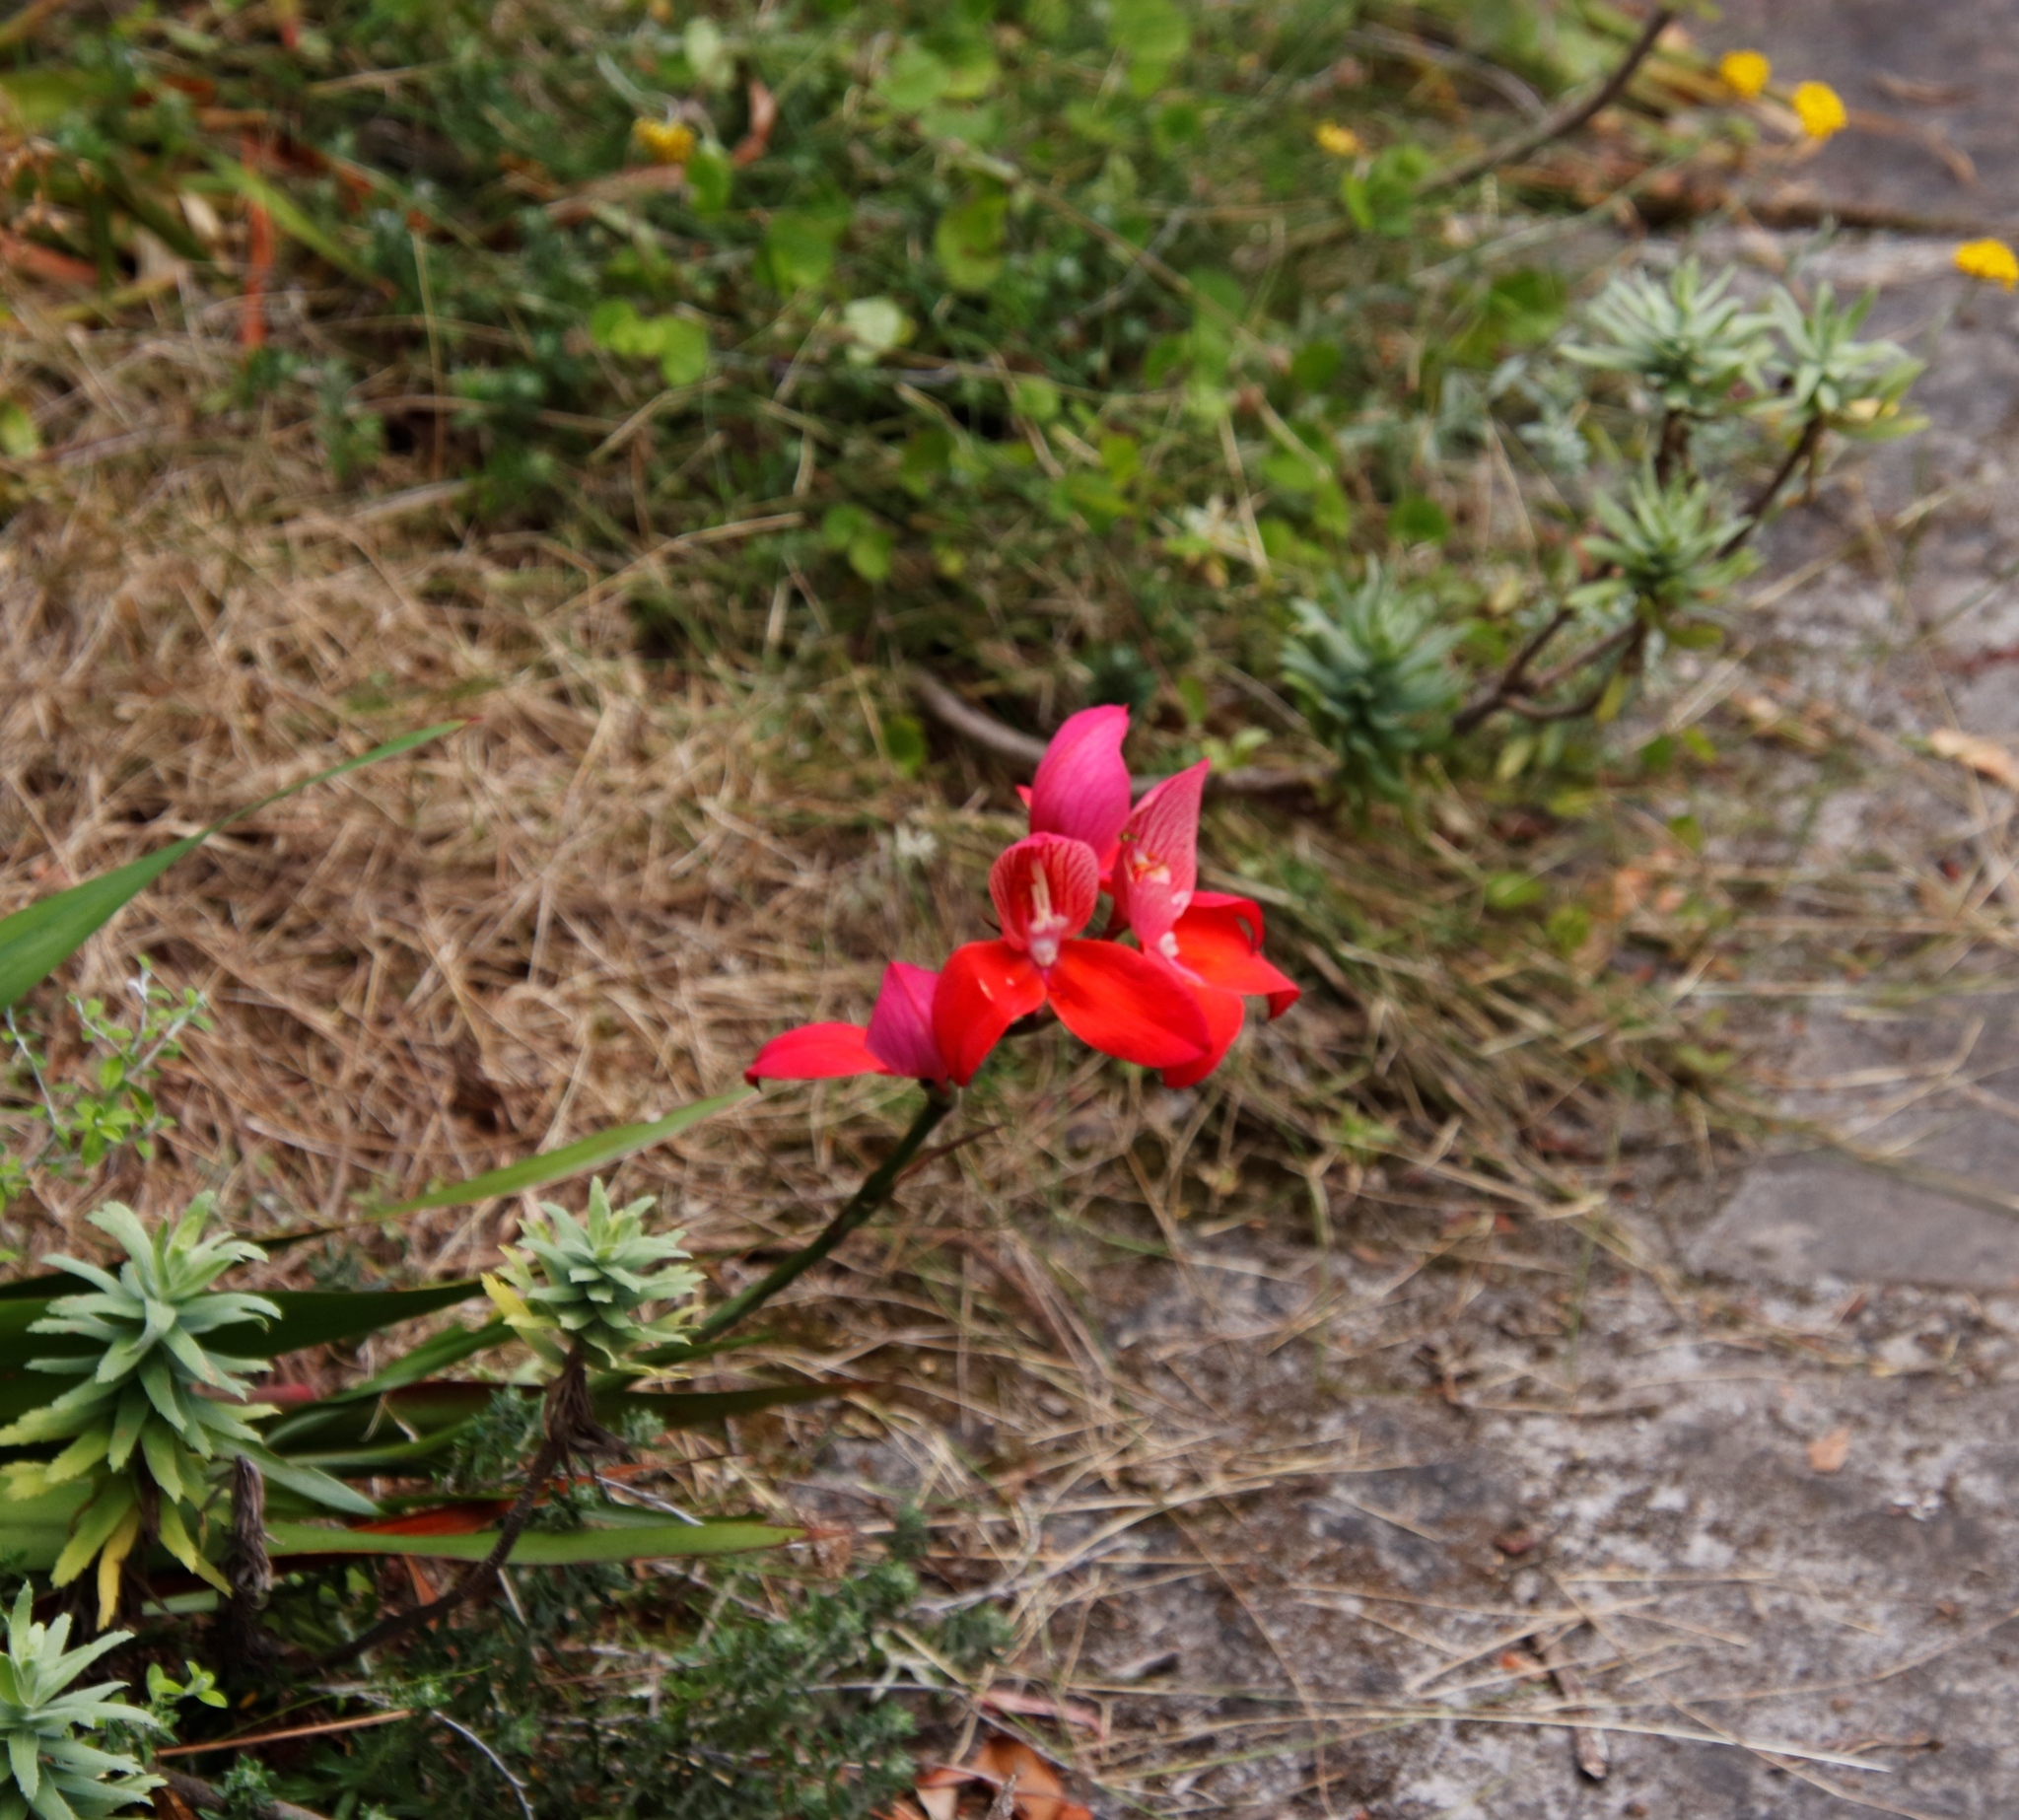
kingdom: Plantae
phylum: Tracheophyta
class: Liliopsida
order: Asparagales
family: Orchidaceae
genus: Disa
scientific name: Disa uniflora
